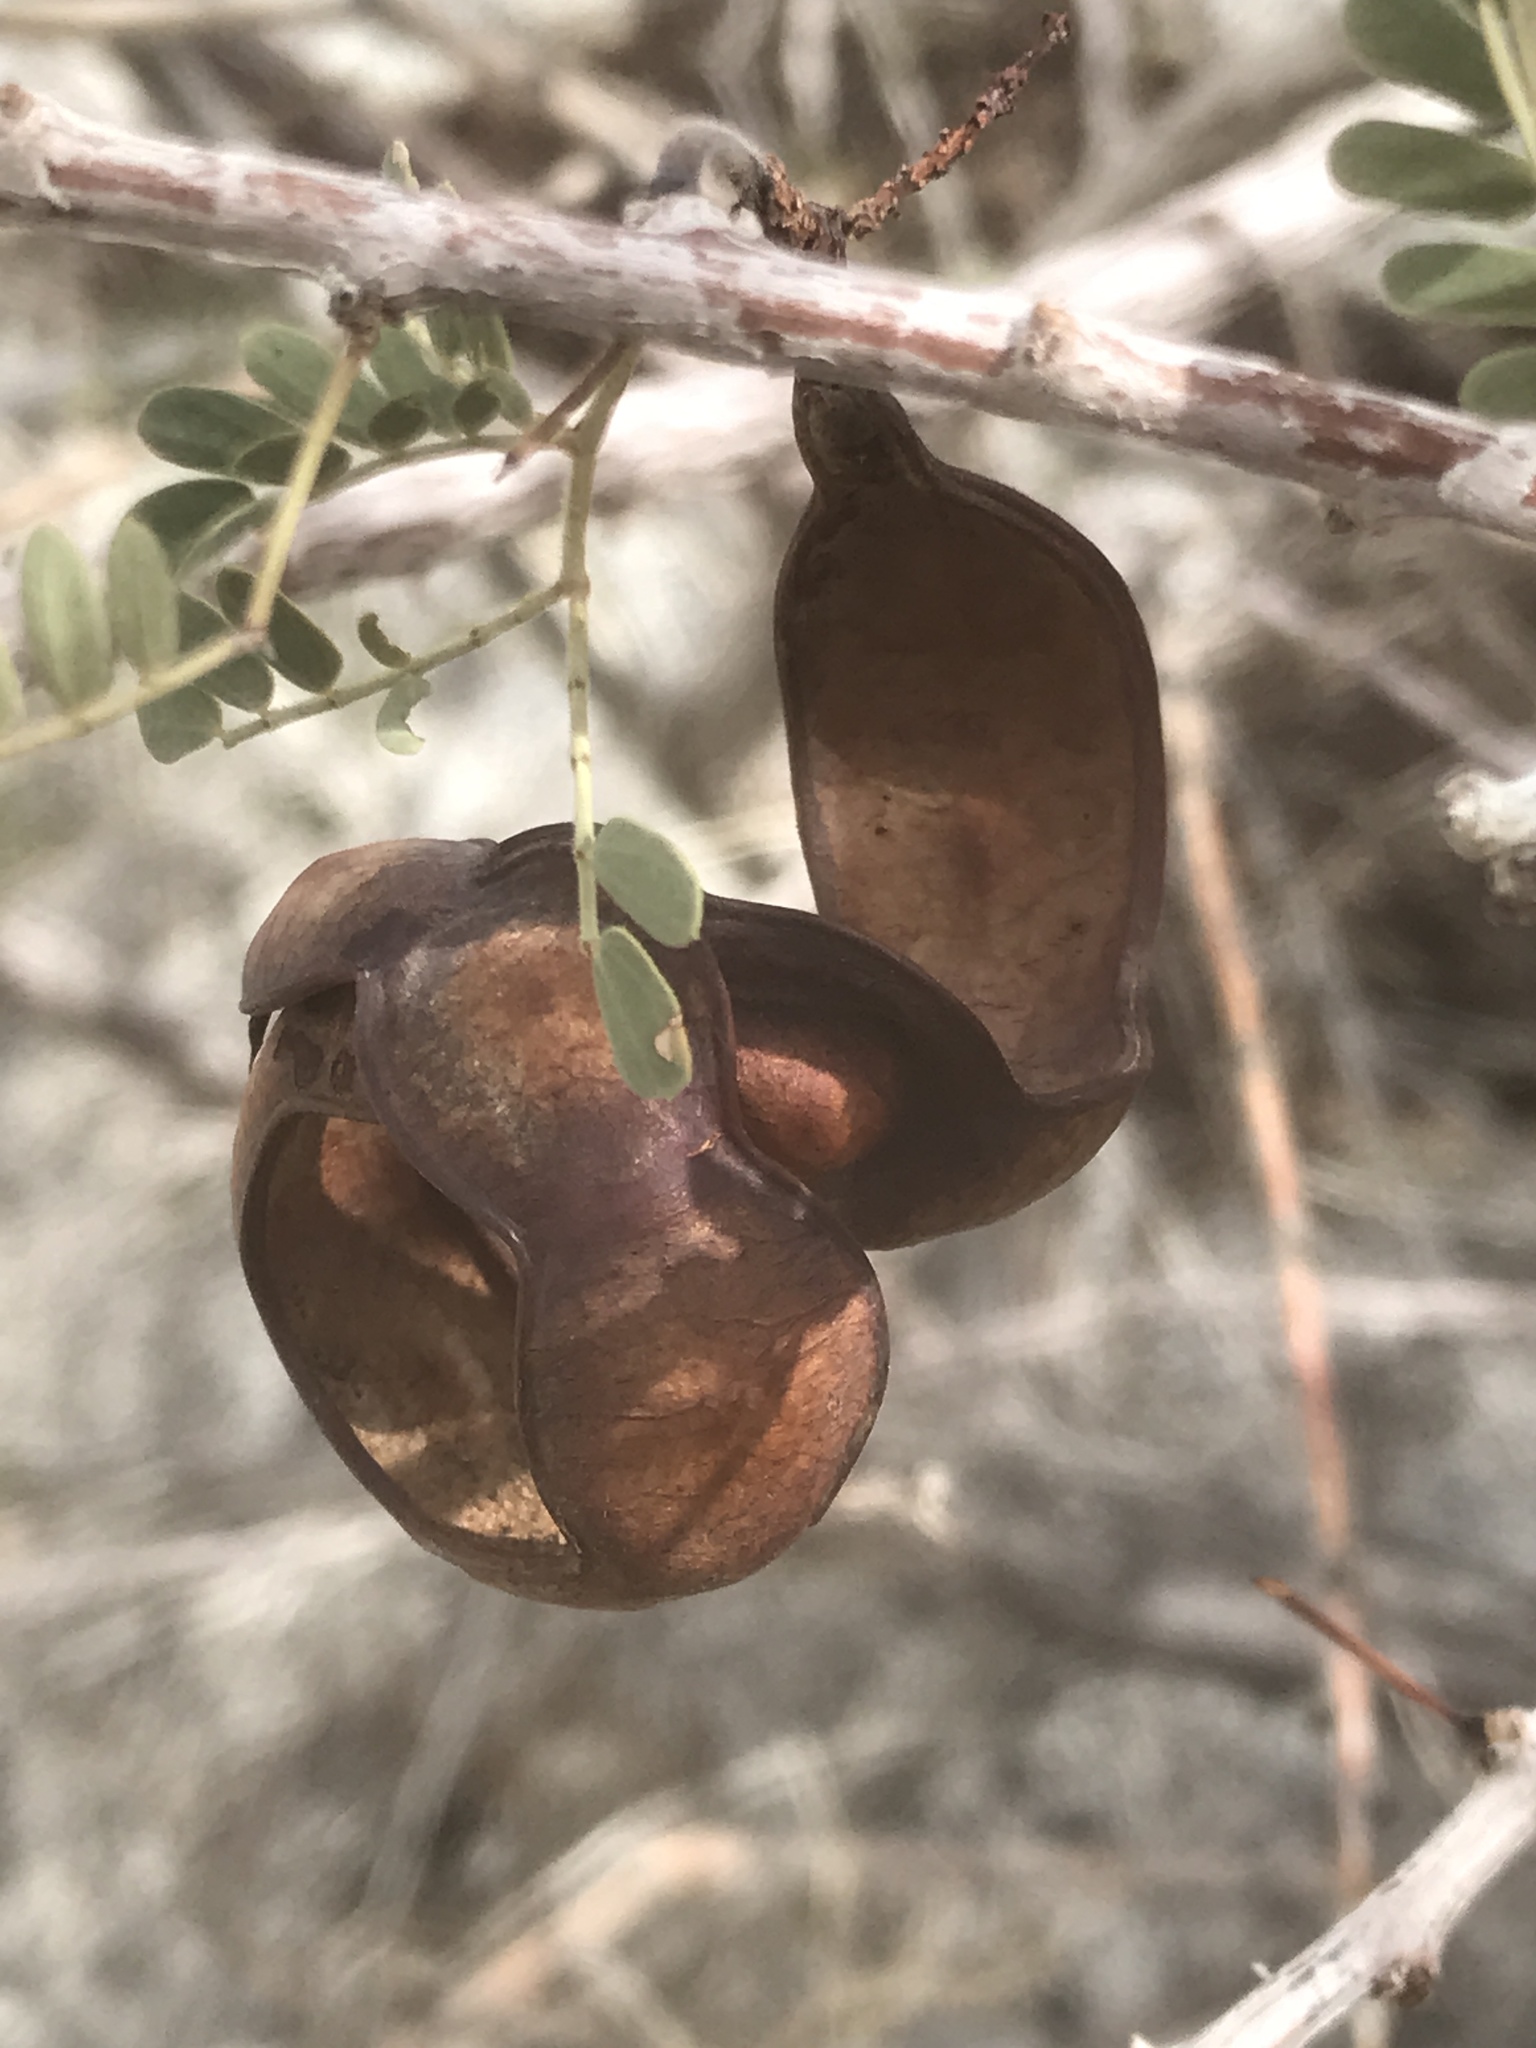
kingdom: Plantae
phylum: Tracheophyta
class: Magnoliopsida
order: Fabales
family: Fabaceae
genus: Senegalia
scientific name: Senegalia greggii
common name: Texas-mimosa
